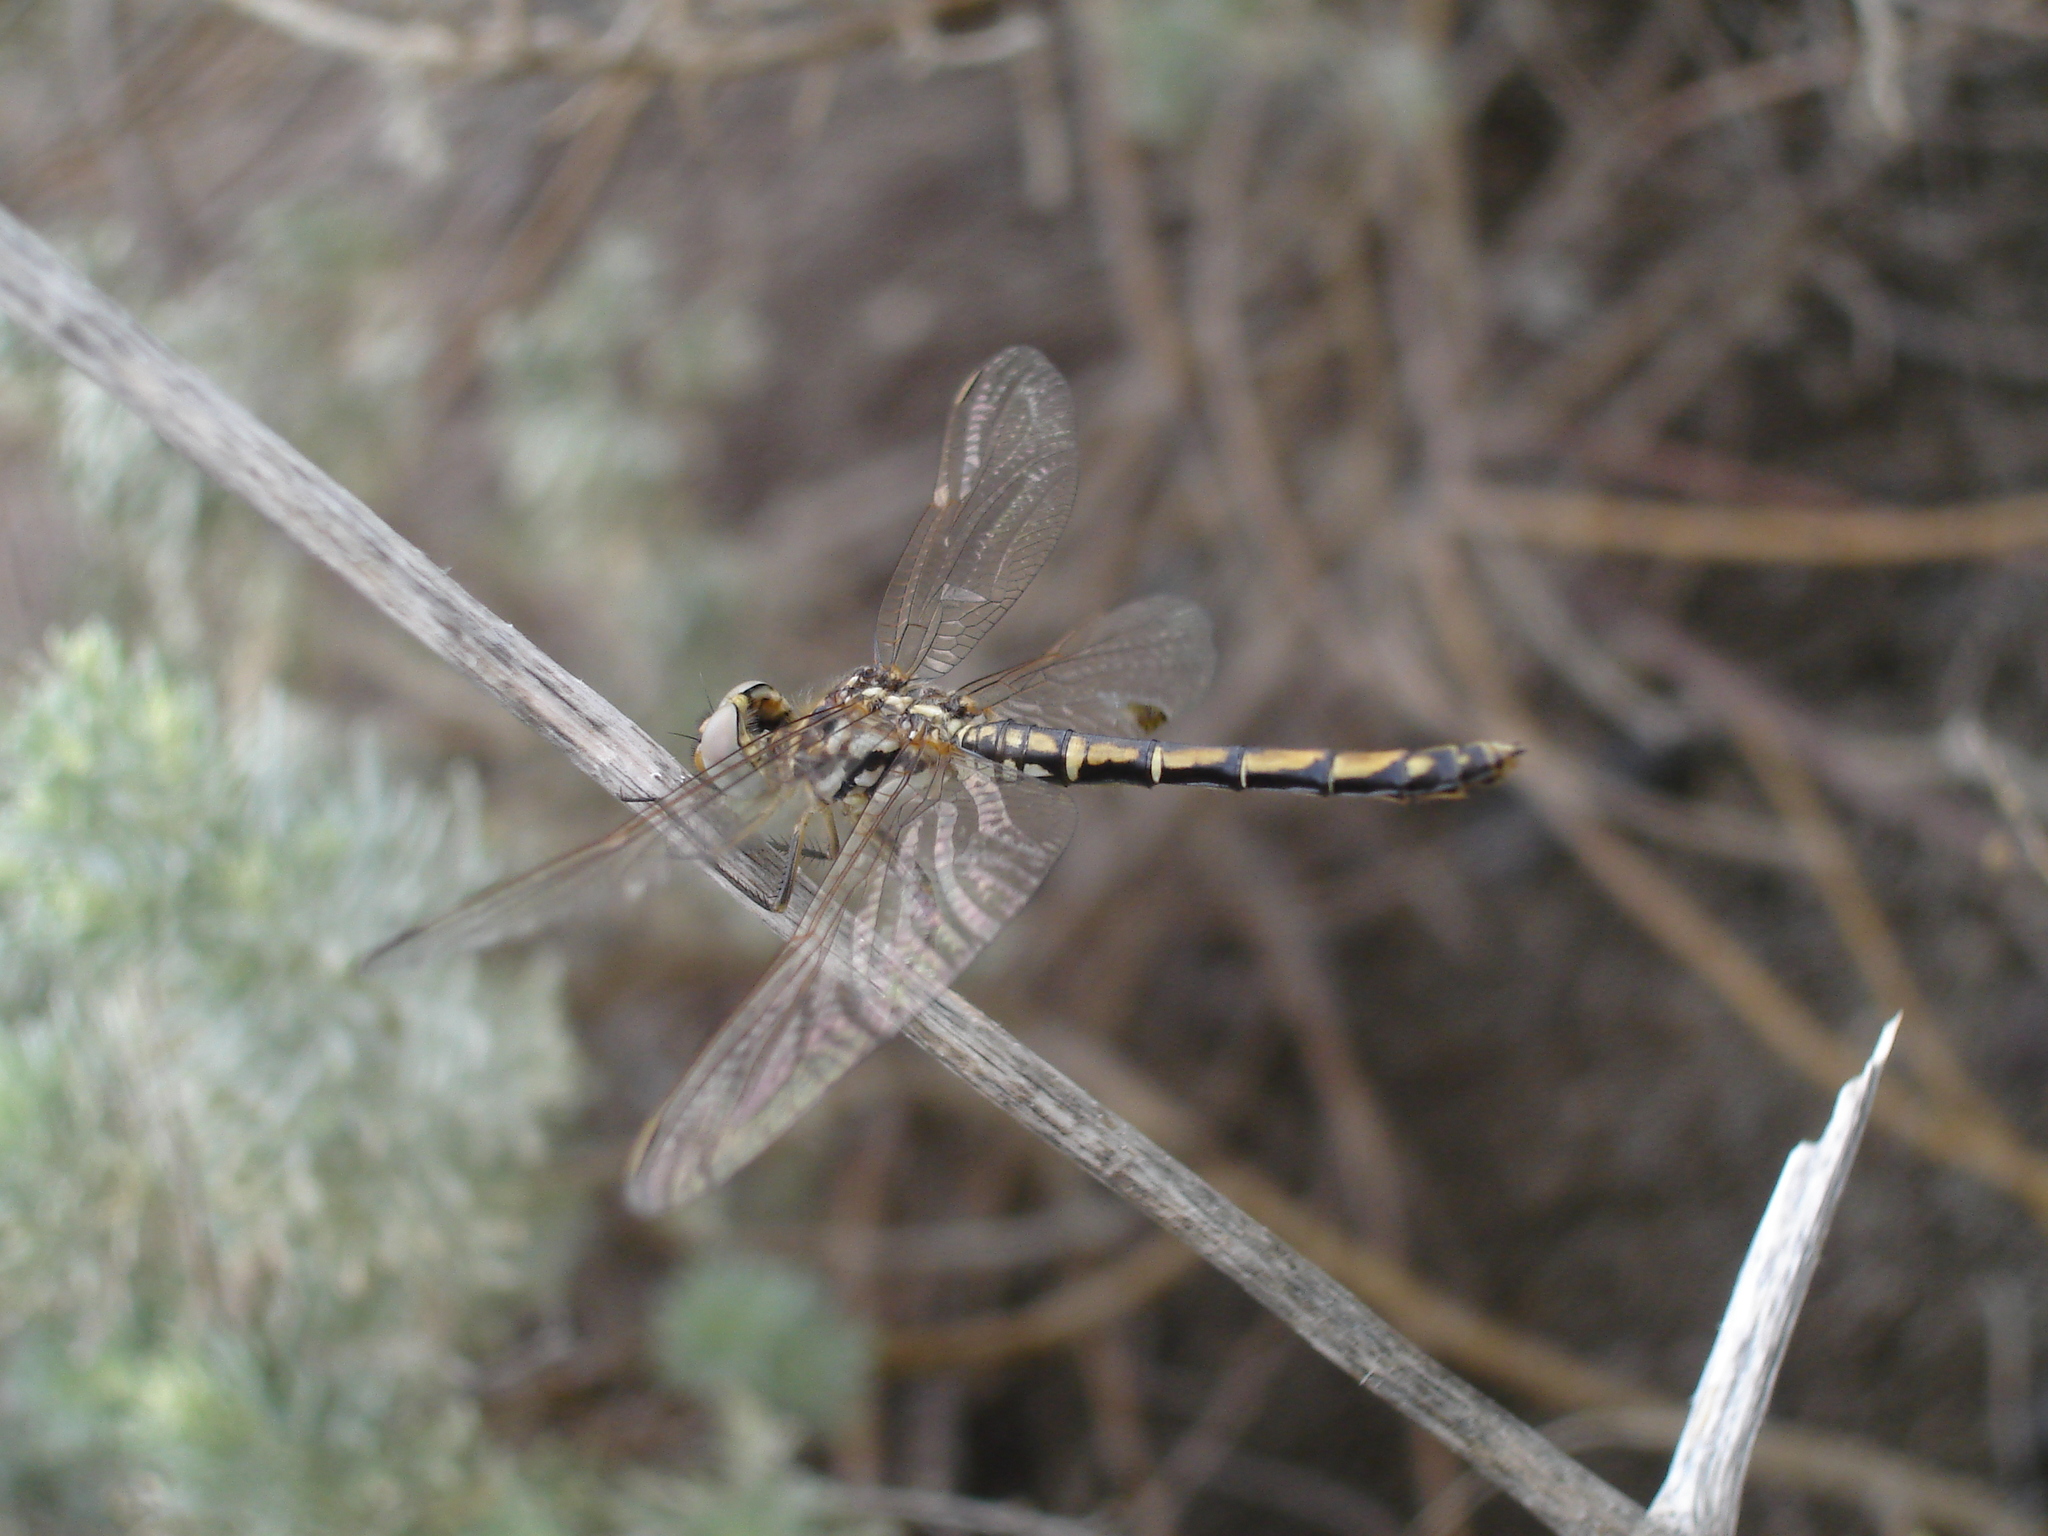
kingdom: Animalia
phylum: Arthropoda
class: Insecta
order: Odonata
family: Libellulidae
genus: Trithemis
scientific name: Trithemis arteriosa
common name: Red-veined dropwing
